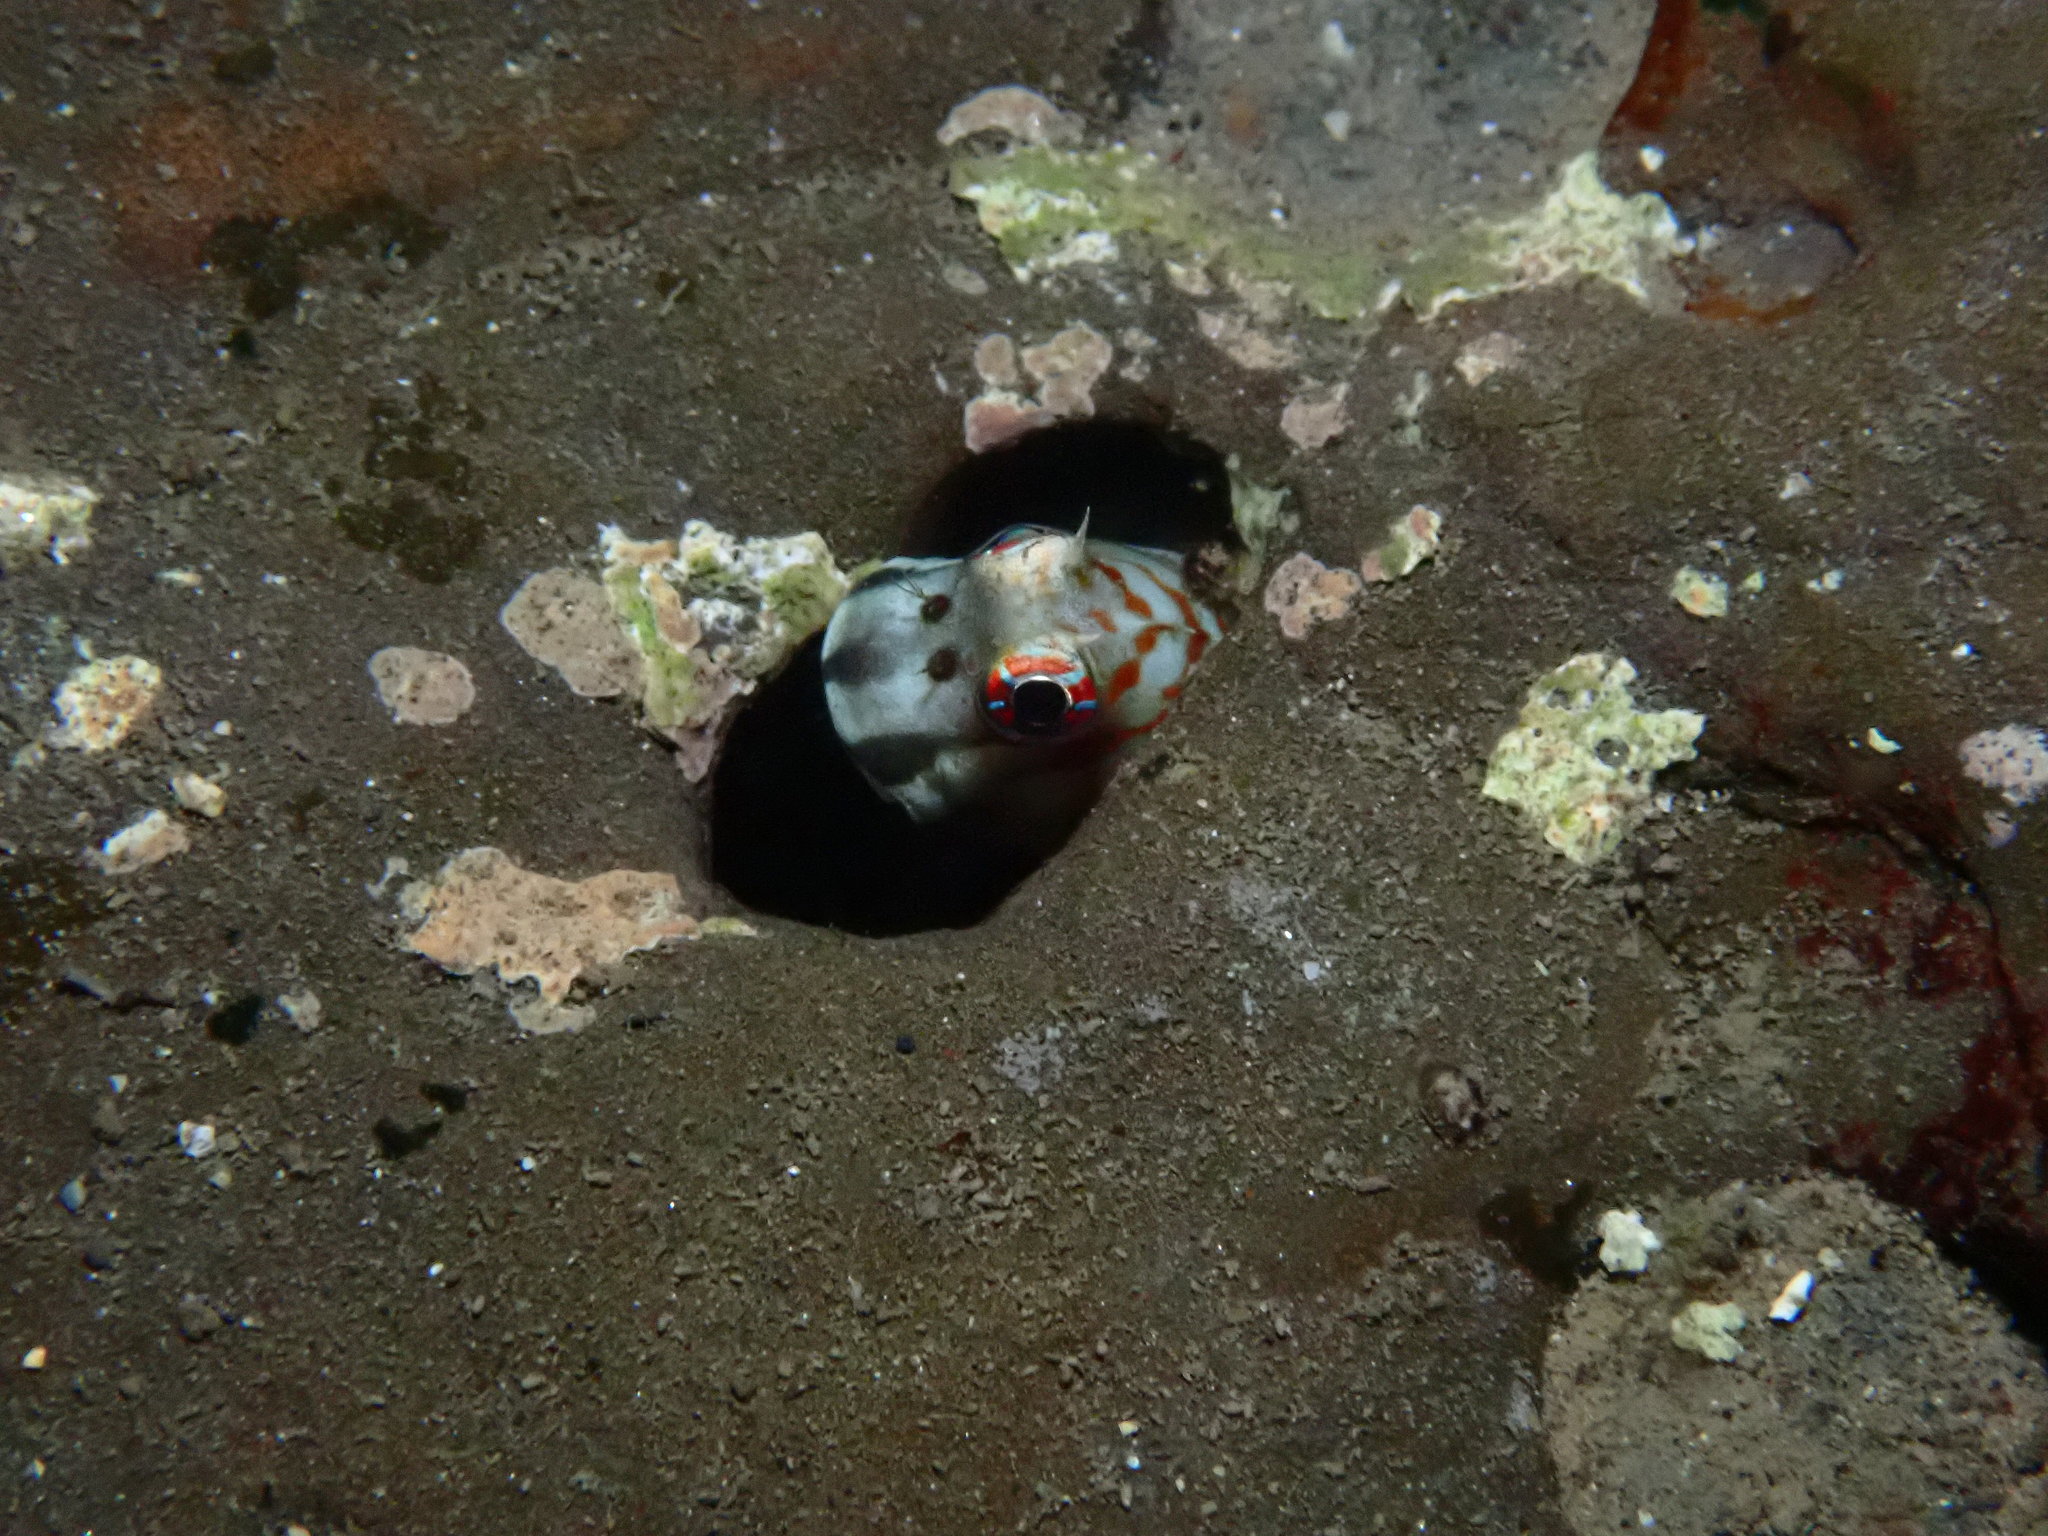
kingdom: Animalia
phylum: Chordata
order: Perciformes
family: Blenniidae
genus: Blenniella
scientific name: Blenniella interrupta
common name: Dashed-line blenny
